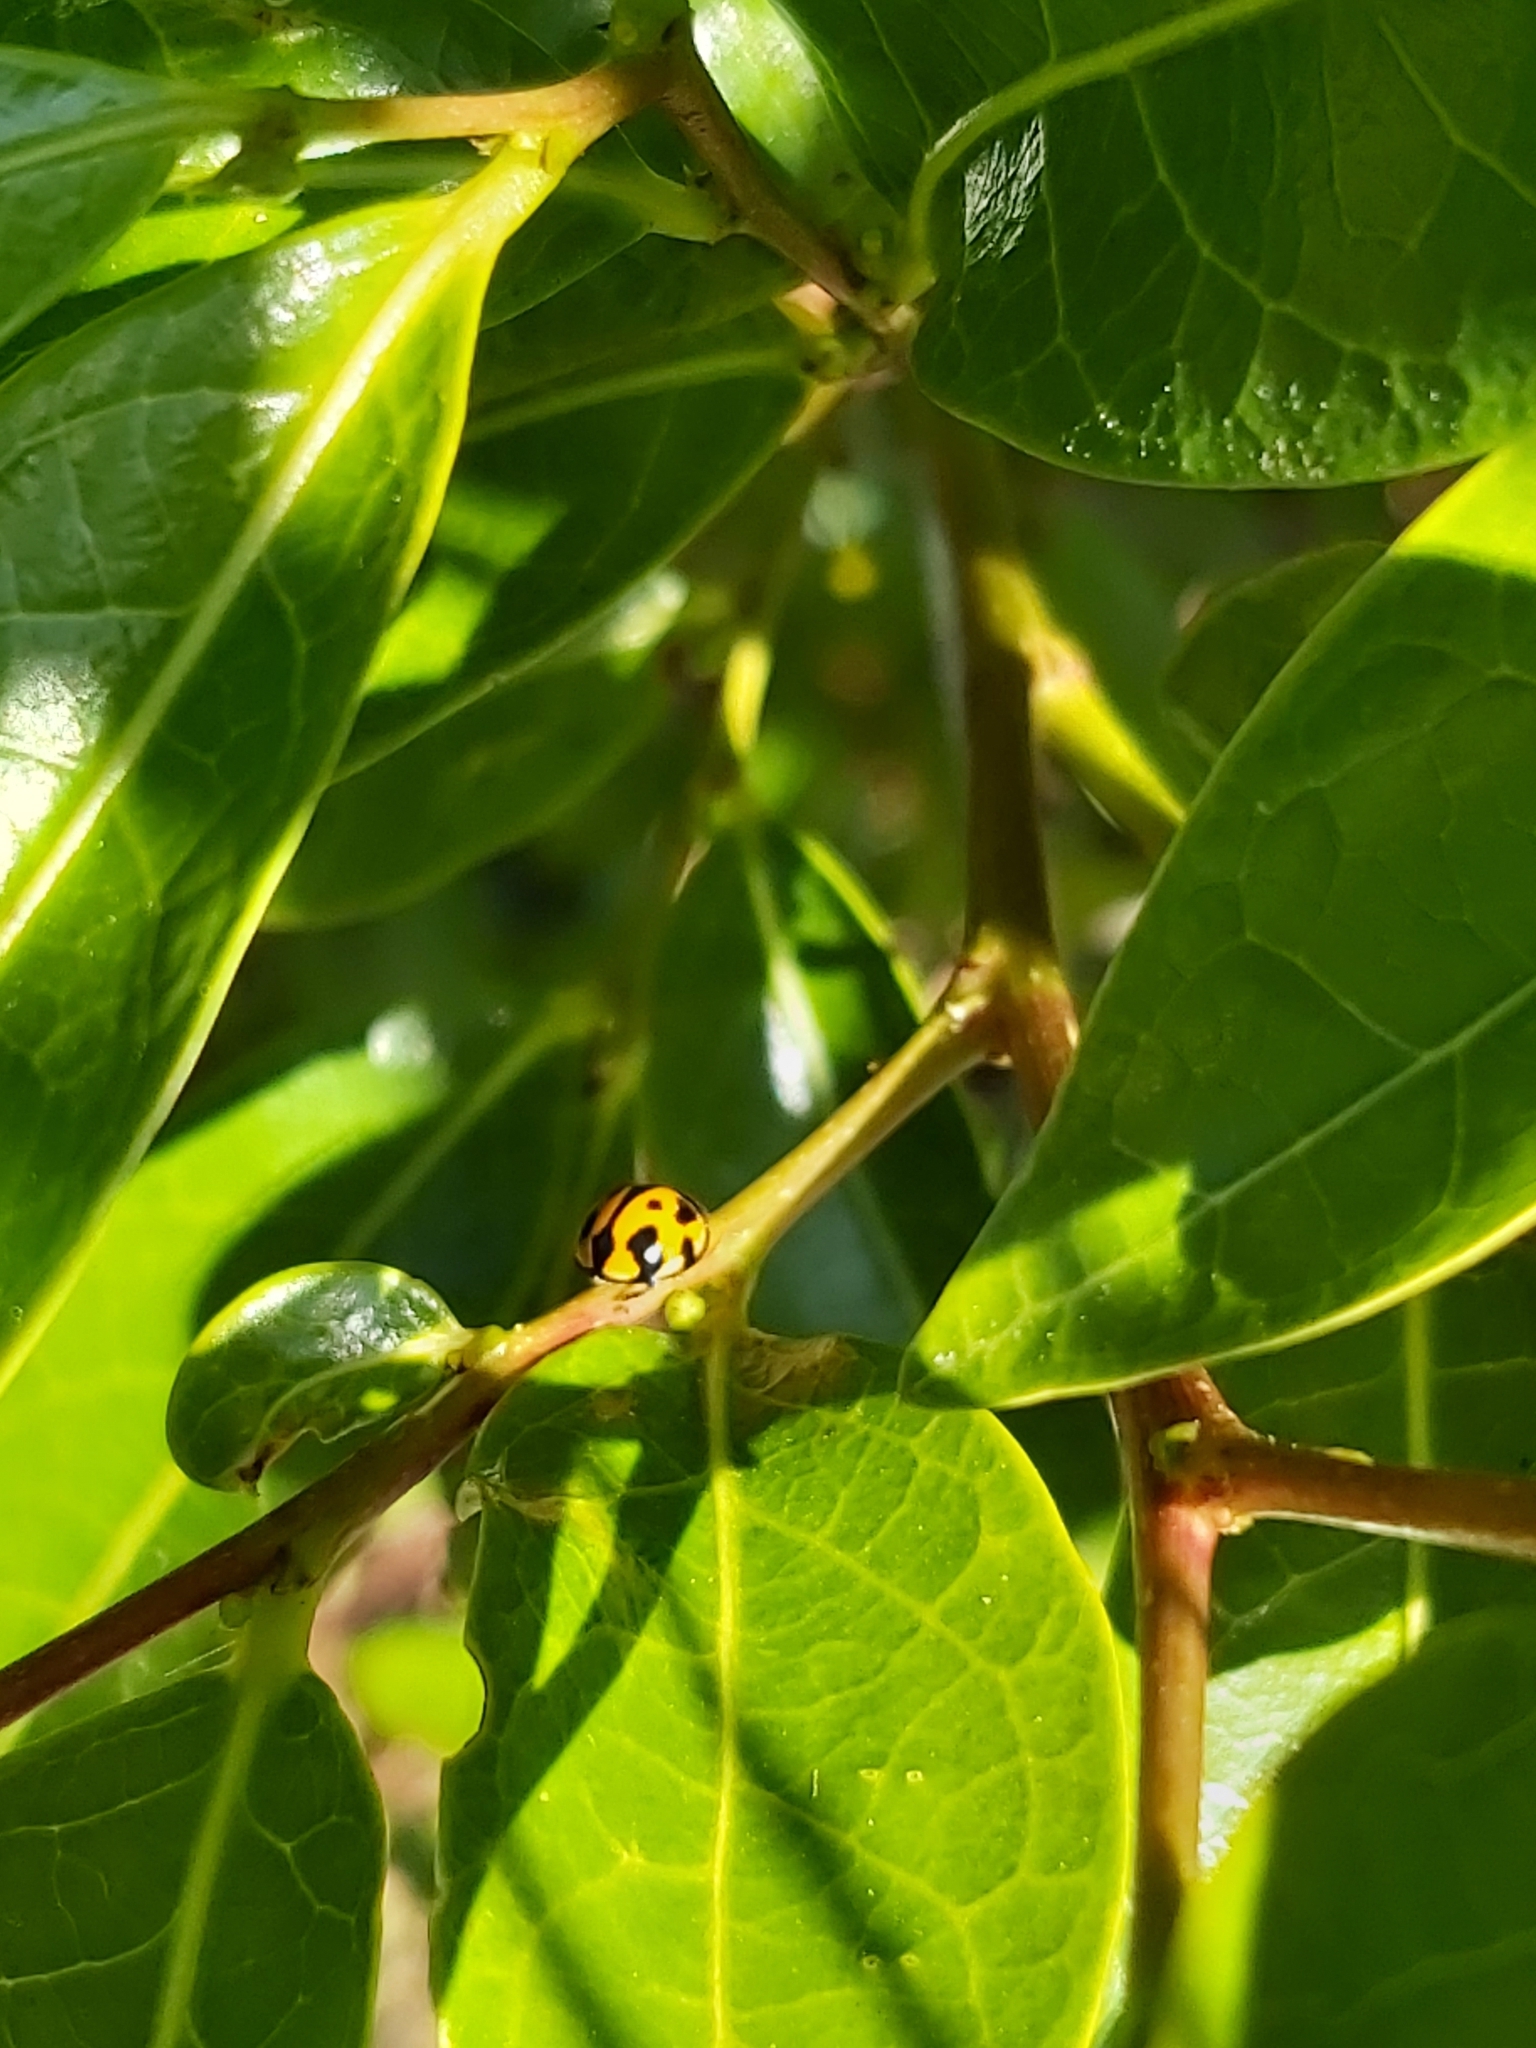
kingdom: Animalia
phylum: Arthropoda
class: Insecta
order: Coleoptera
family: Coccinellidae
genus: Coelophora
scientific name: Coelophora inaequalis
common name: Common australian lady beetle
